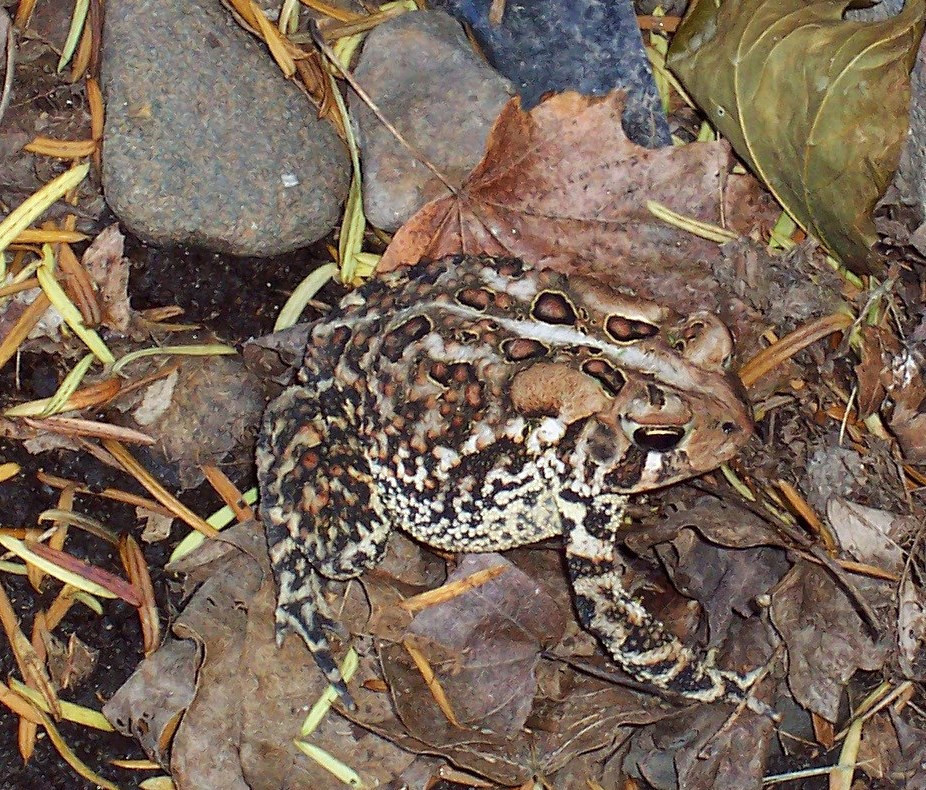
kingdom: Animalia
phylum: Chordata
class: Amphibia
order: Anura
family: Bufonidae
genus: Anaxyrus
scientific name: Anaxyrus americanus
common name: American toad
